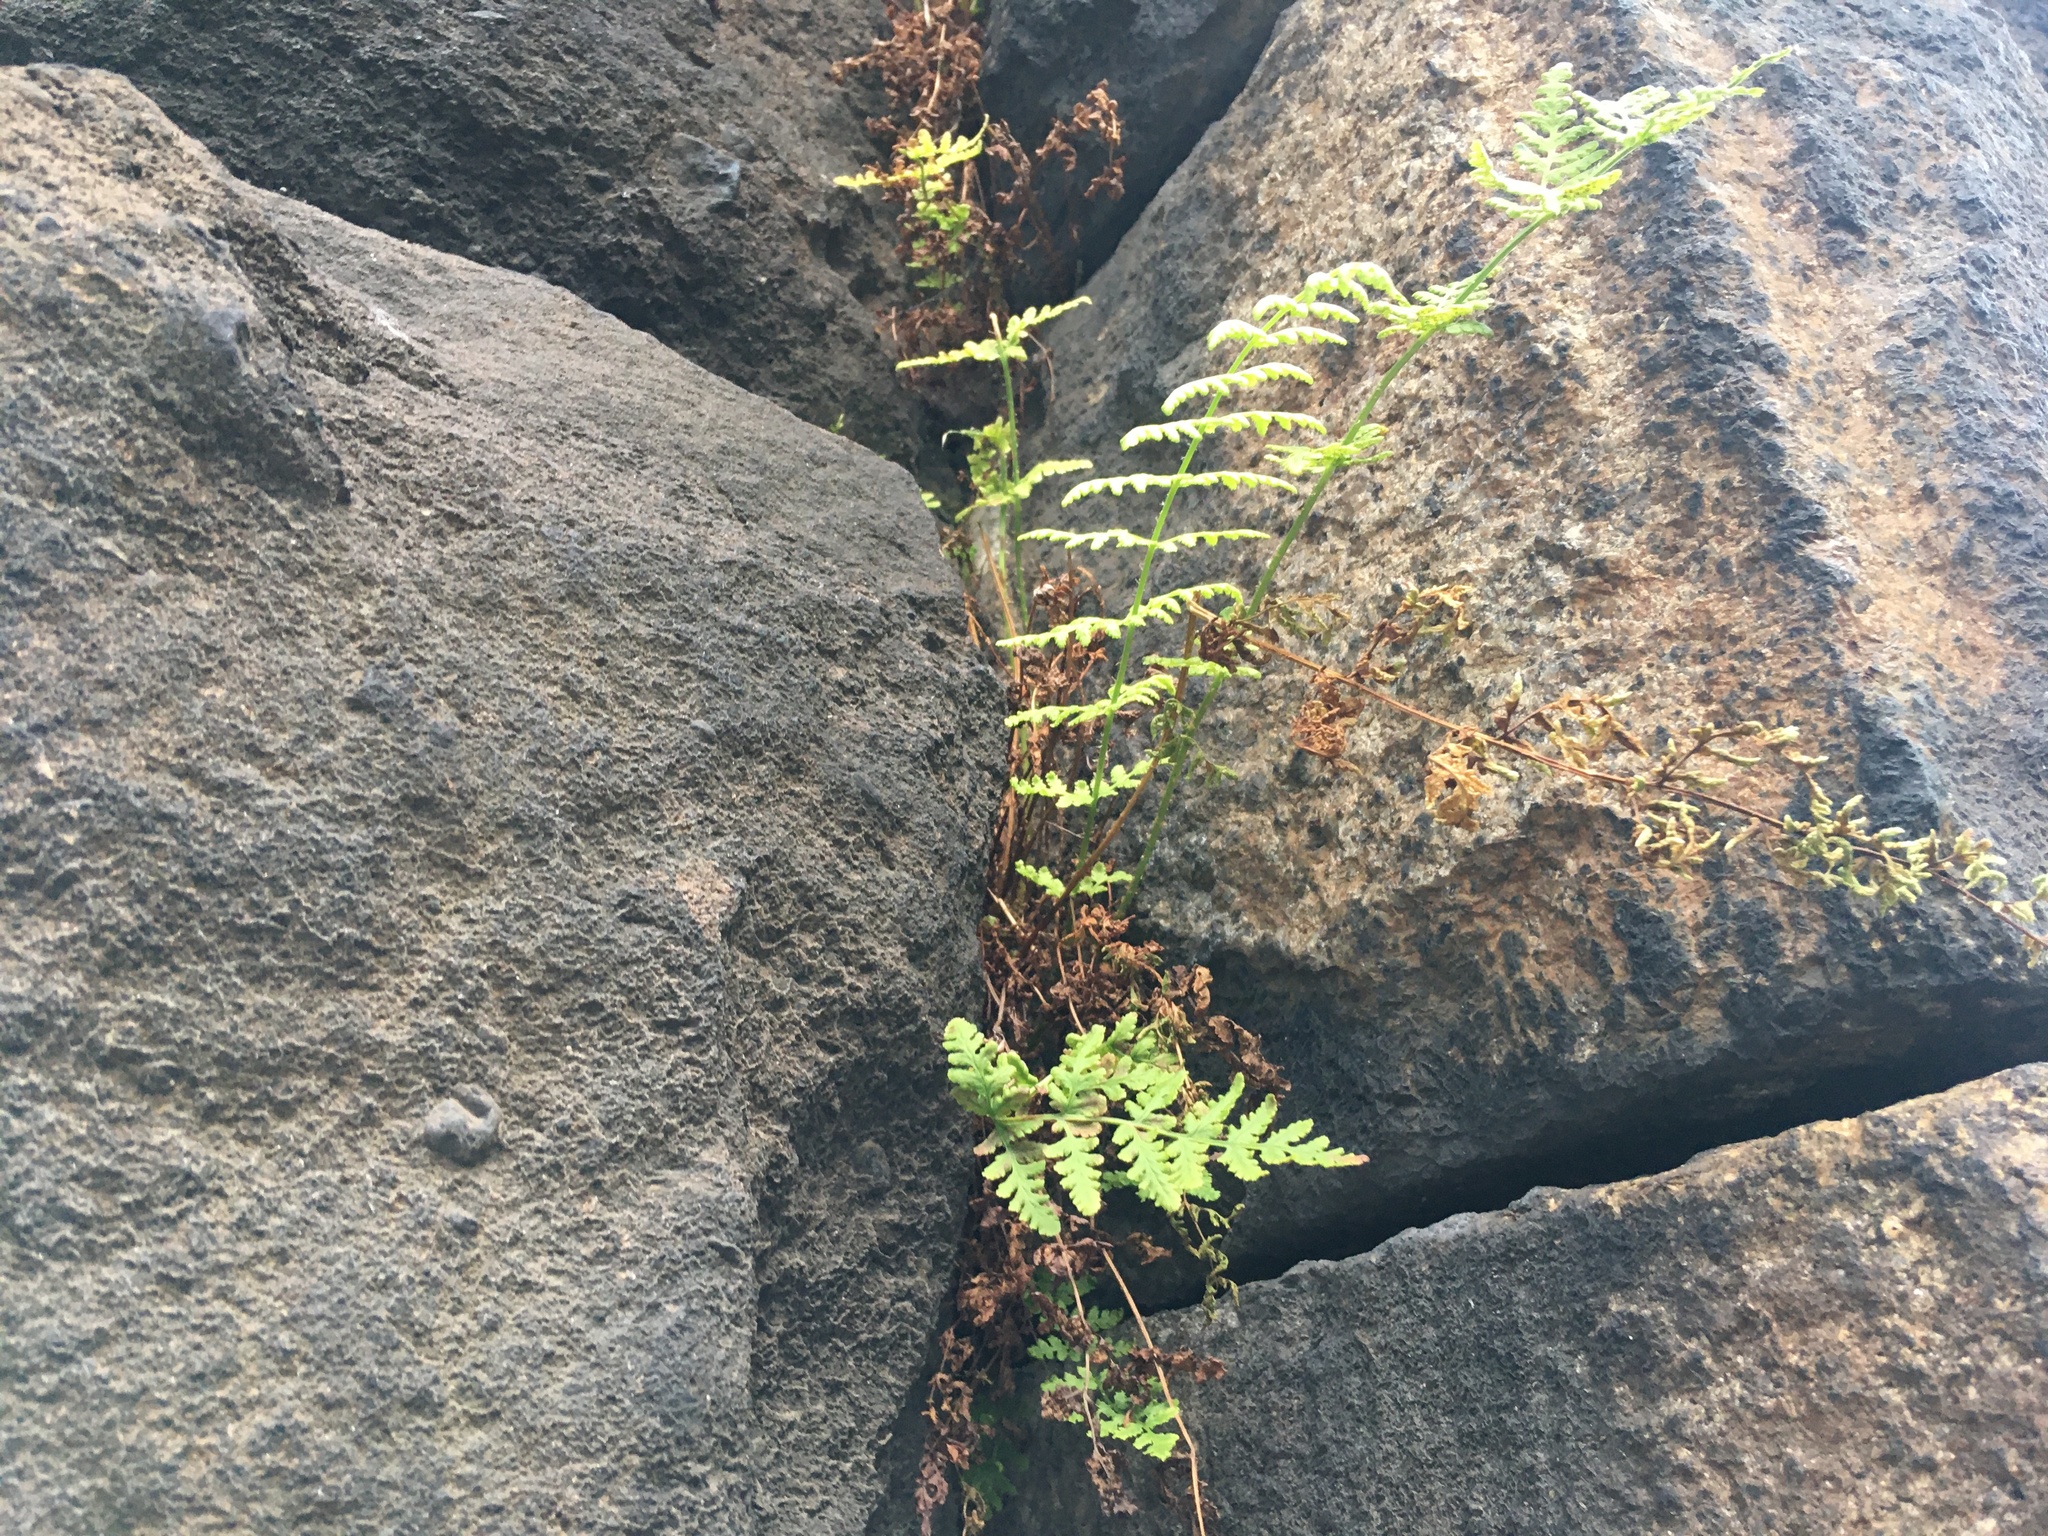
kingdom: Plantae
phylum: Tracheophyta
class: Polypodiopsida
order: Polypodiales
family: Woodsiaceae
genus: Physematium
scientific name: Physematium obtusum
